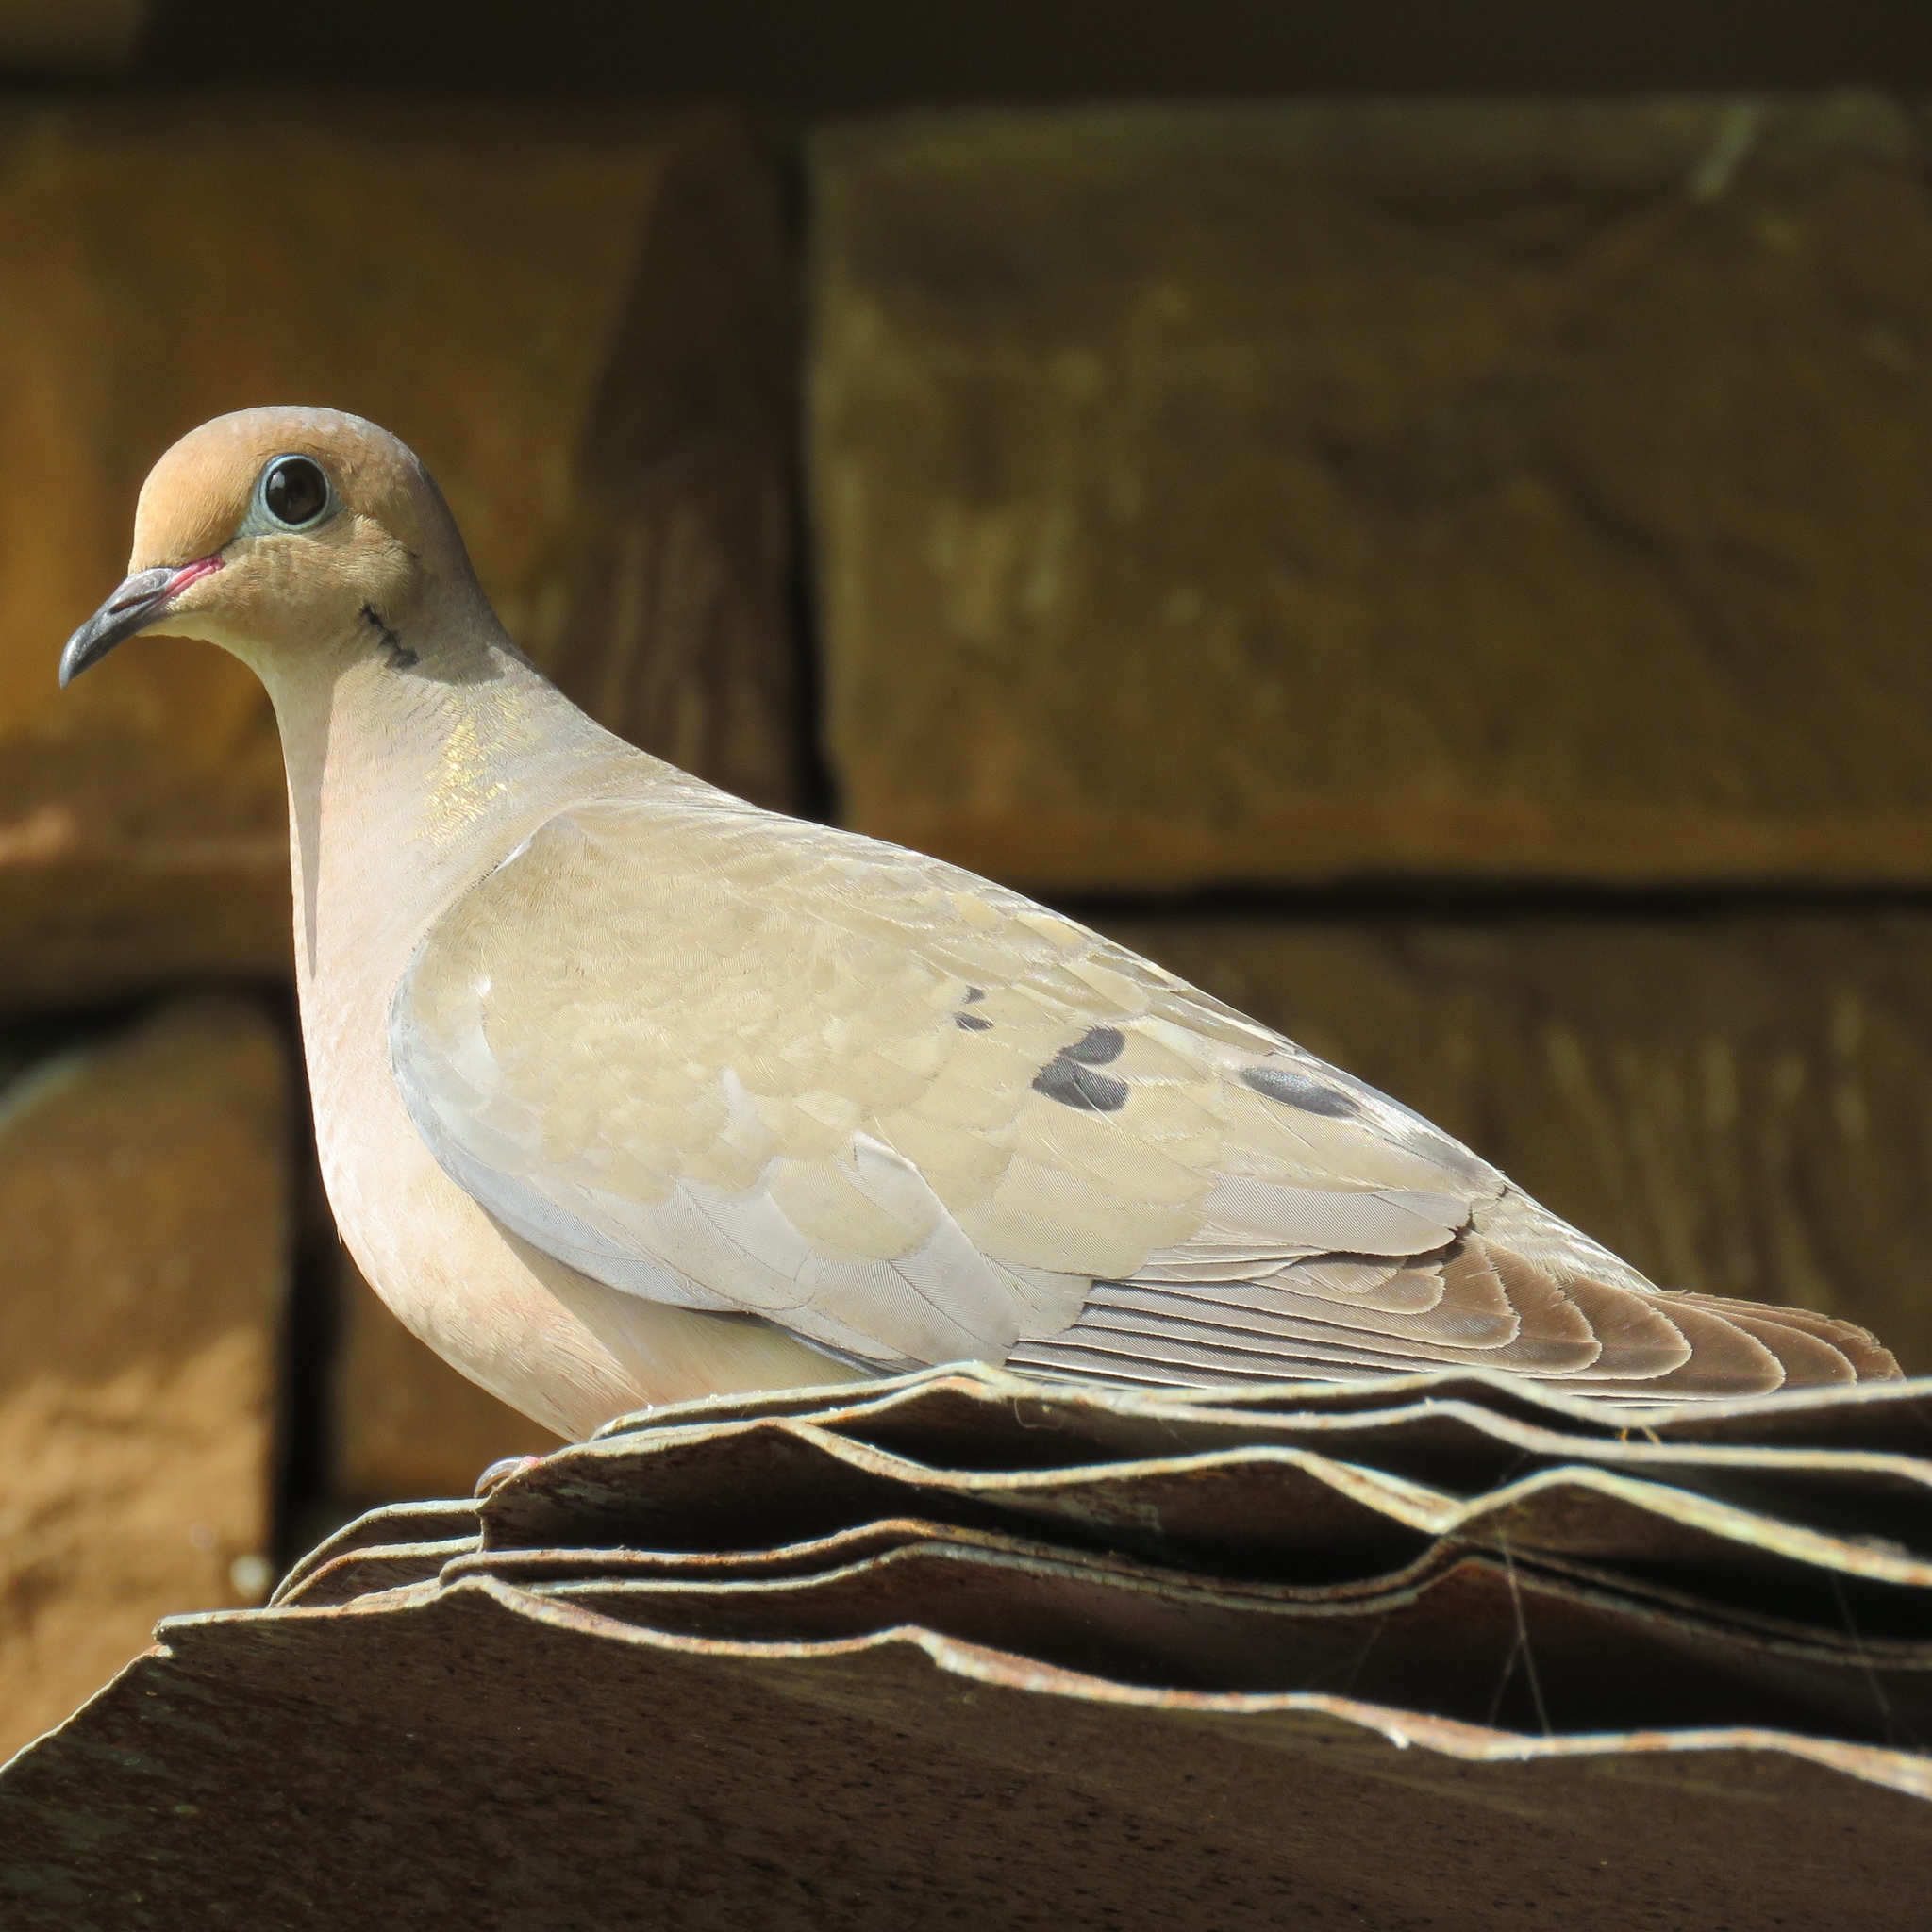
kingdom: Animalia
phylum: Chordata
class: Aves
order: Columbiformes
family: Columbidae
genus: Zenaida
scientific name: Zenaida macroura
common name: Mourning dove
